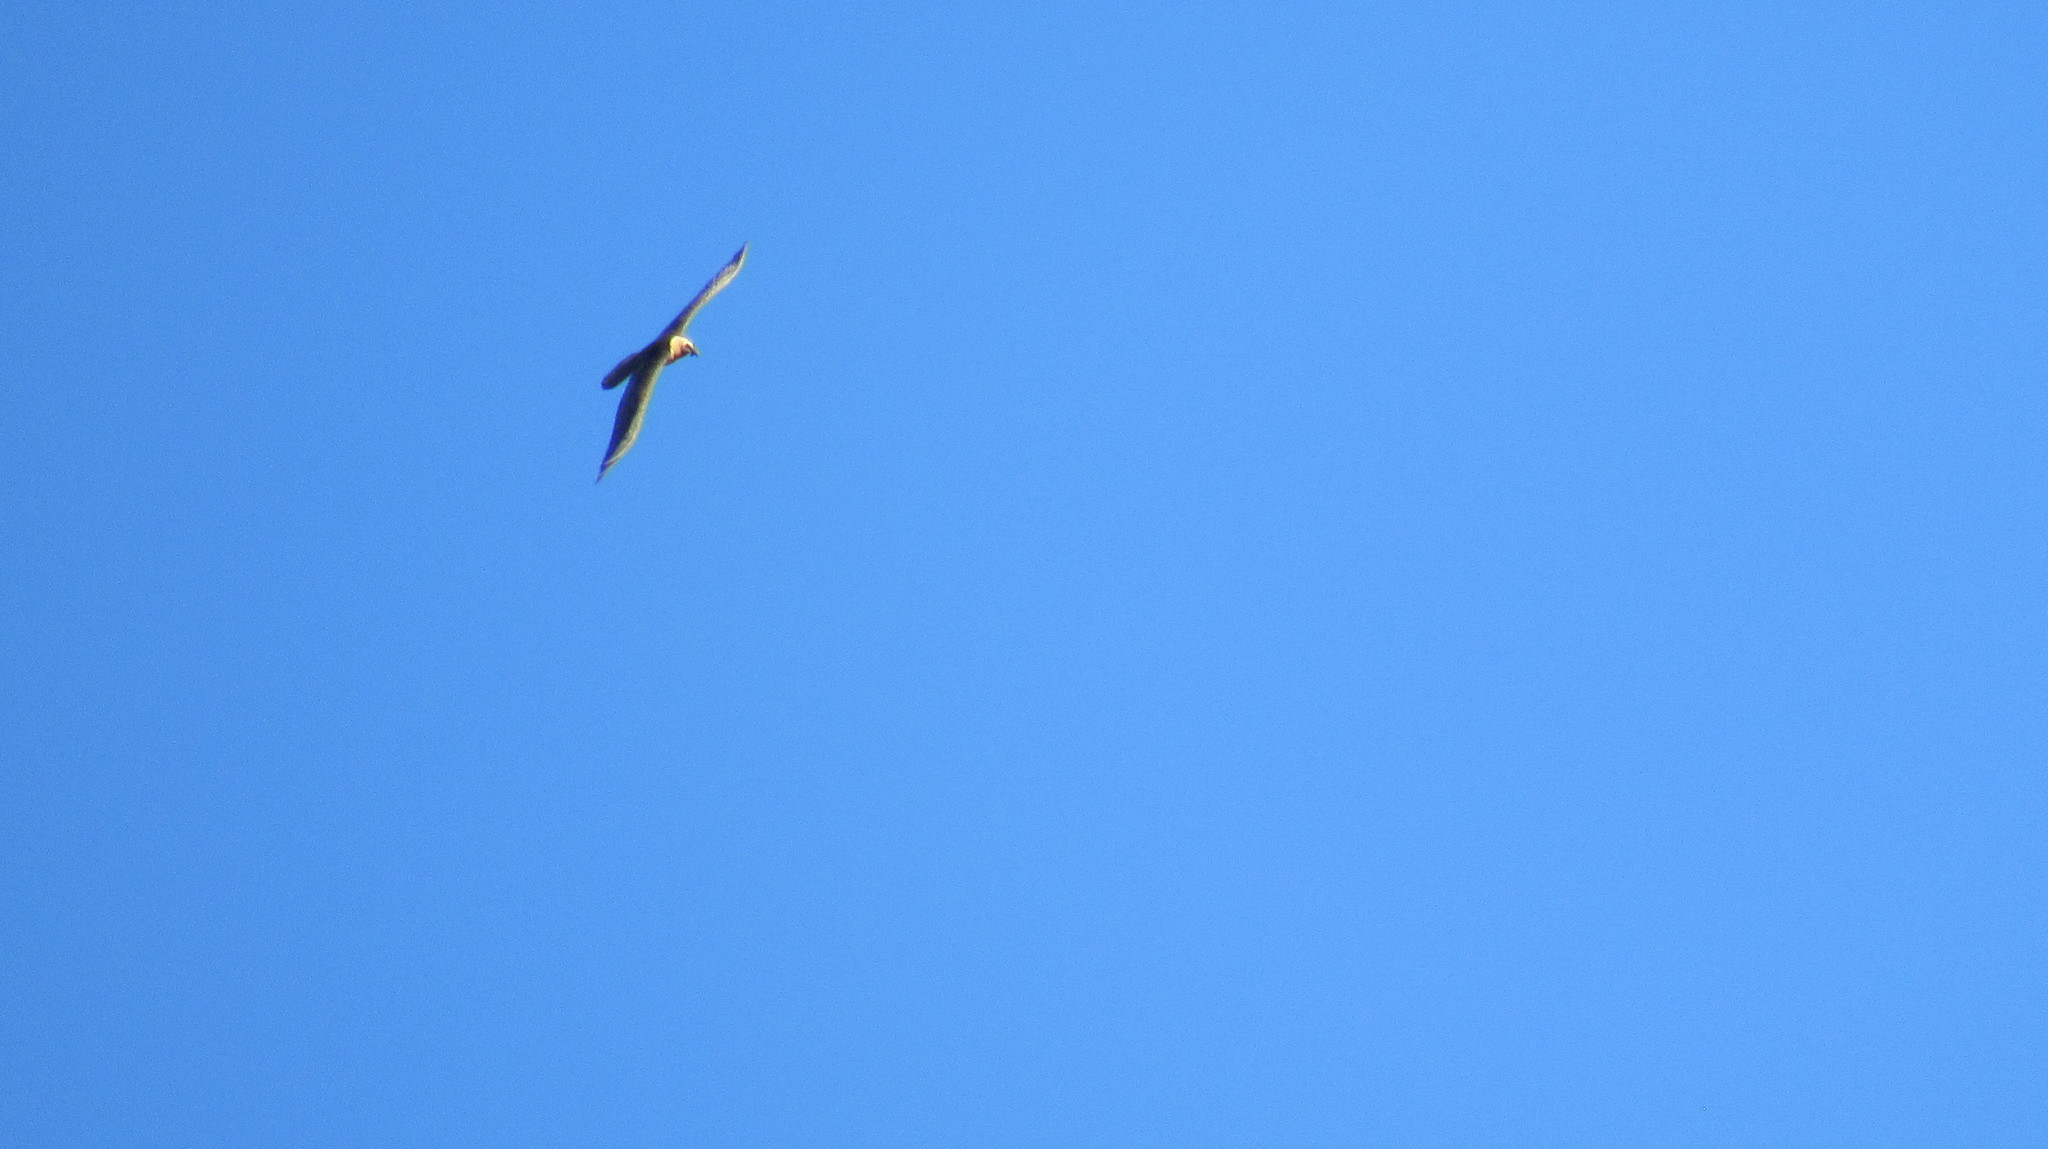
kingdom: Animalia
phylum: Chordata
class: Aves
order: Accipitriformes
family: Accipitridae
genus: Gypaetus
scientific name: Gypaetus barbatus
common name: Bearded vulture
